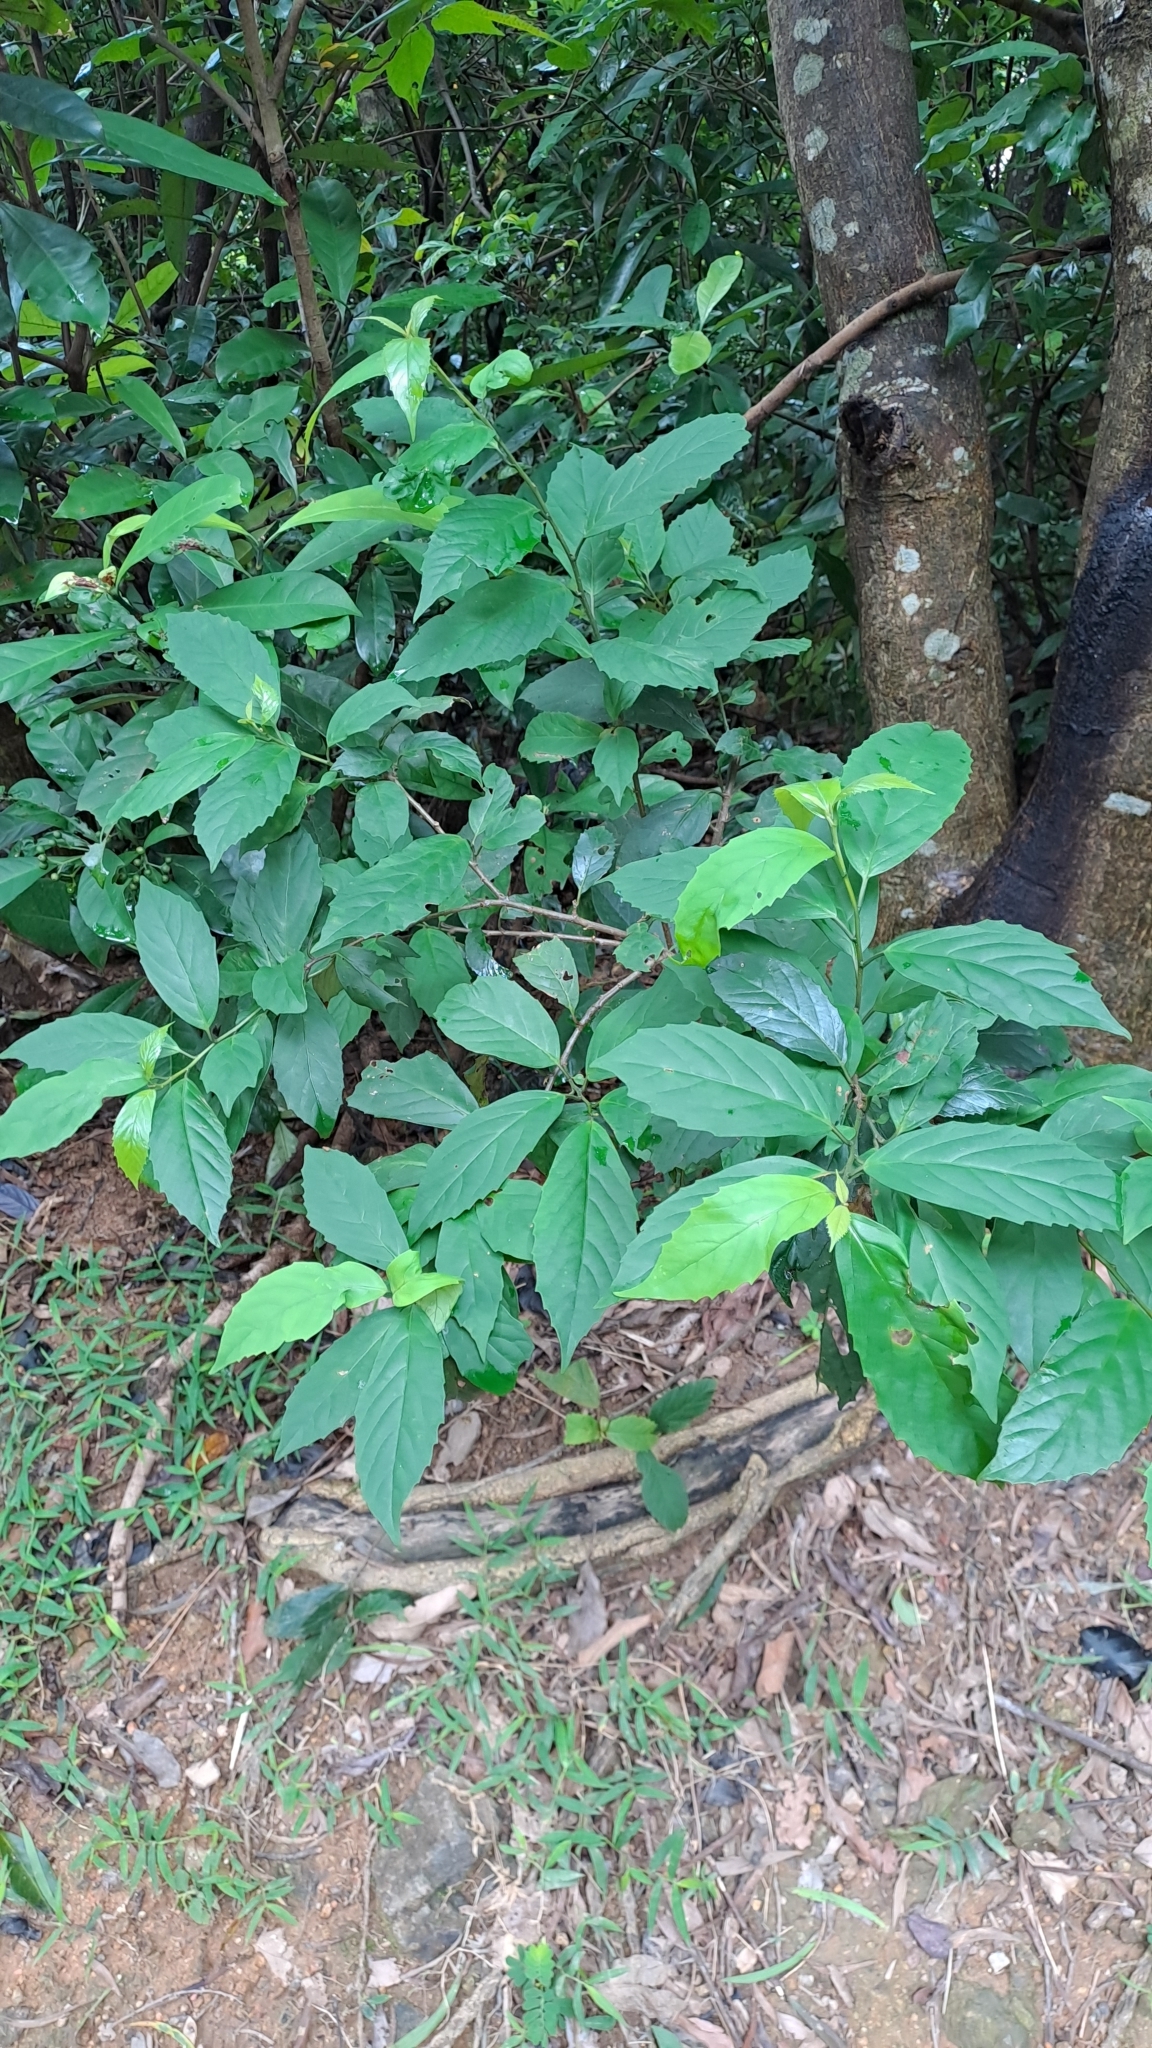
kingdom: Plantae
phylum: Tracheophyta
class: Magnoliopsida
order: Ericales
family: Primulaceae
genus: Maesa
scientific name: Maesa perlaria
